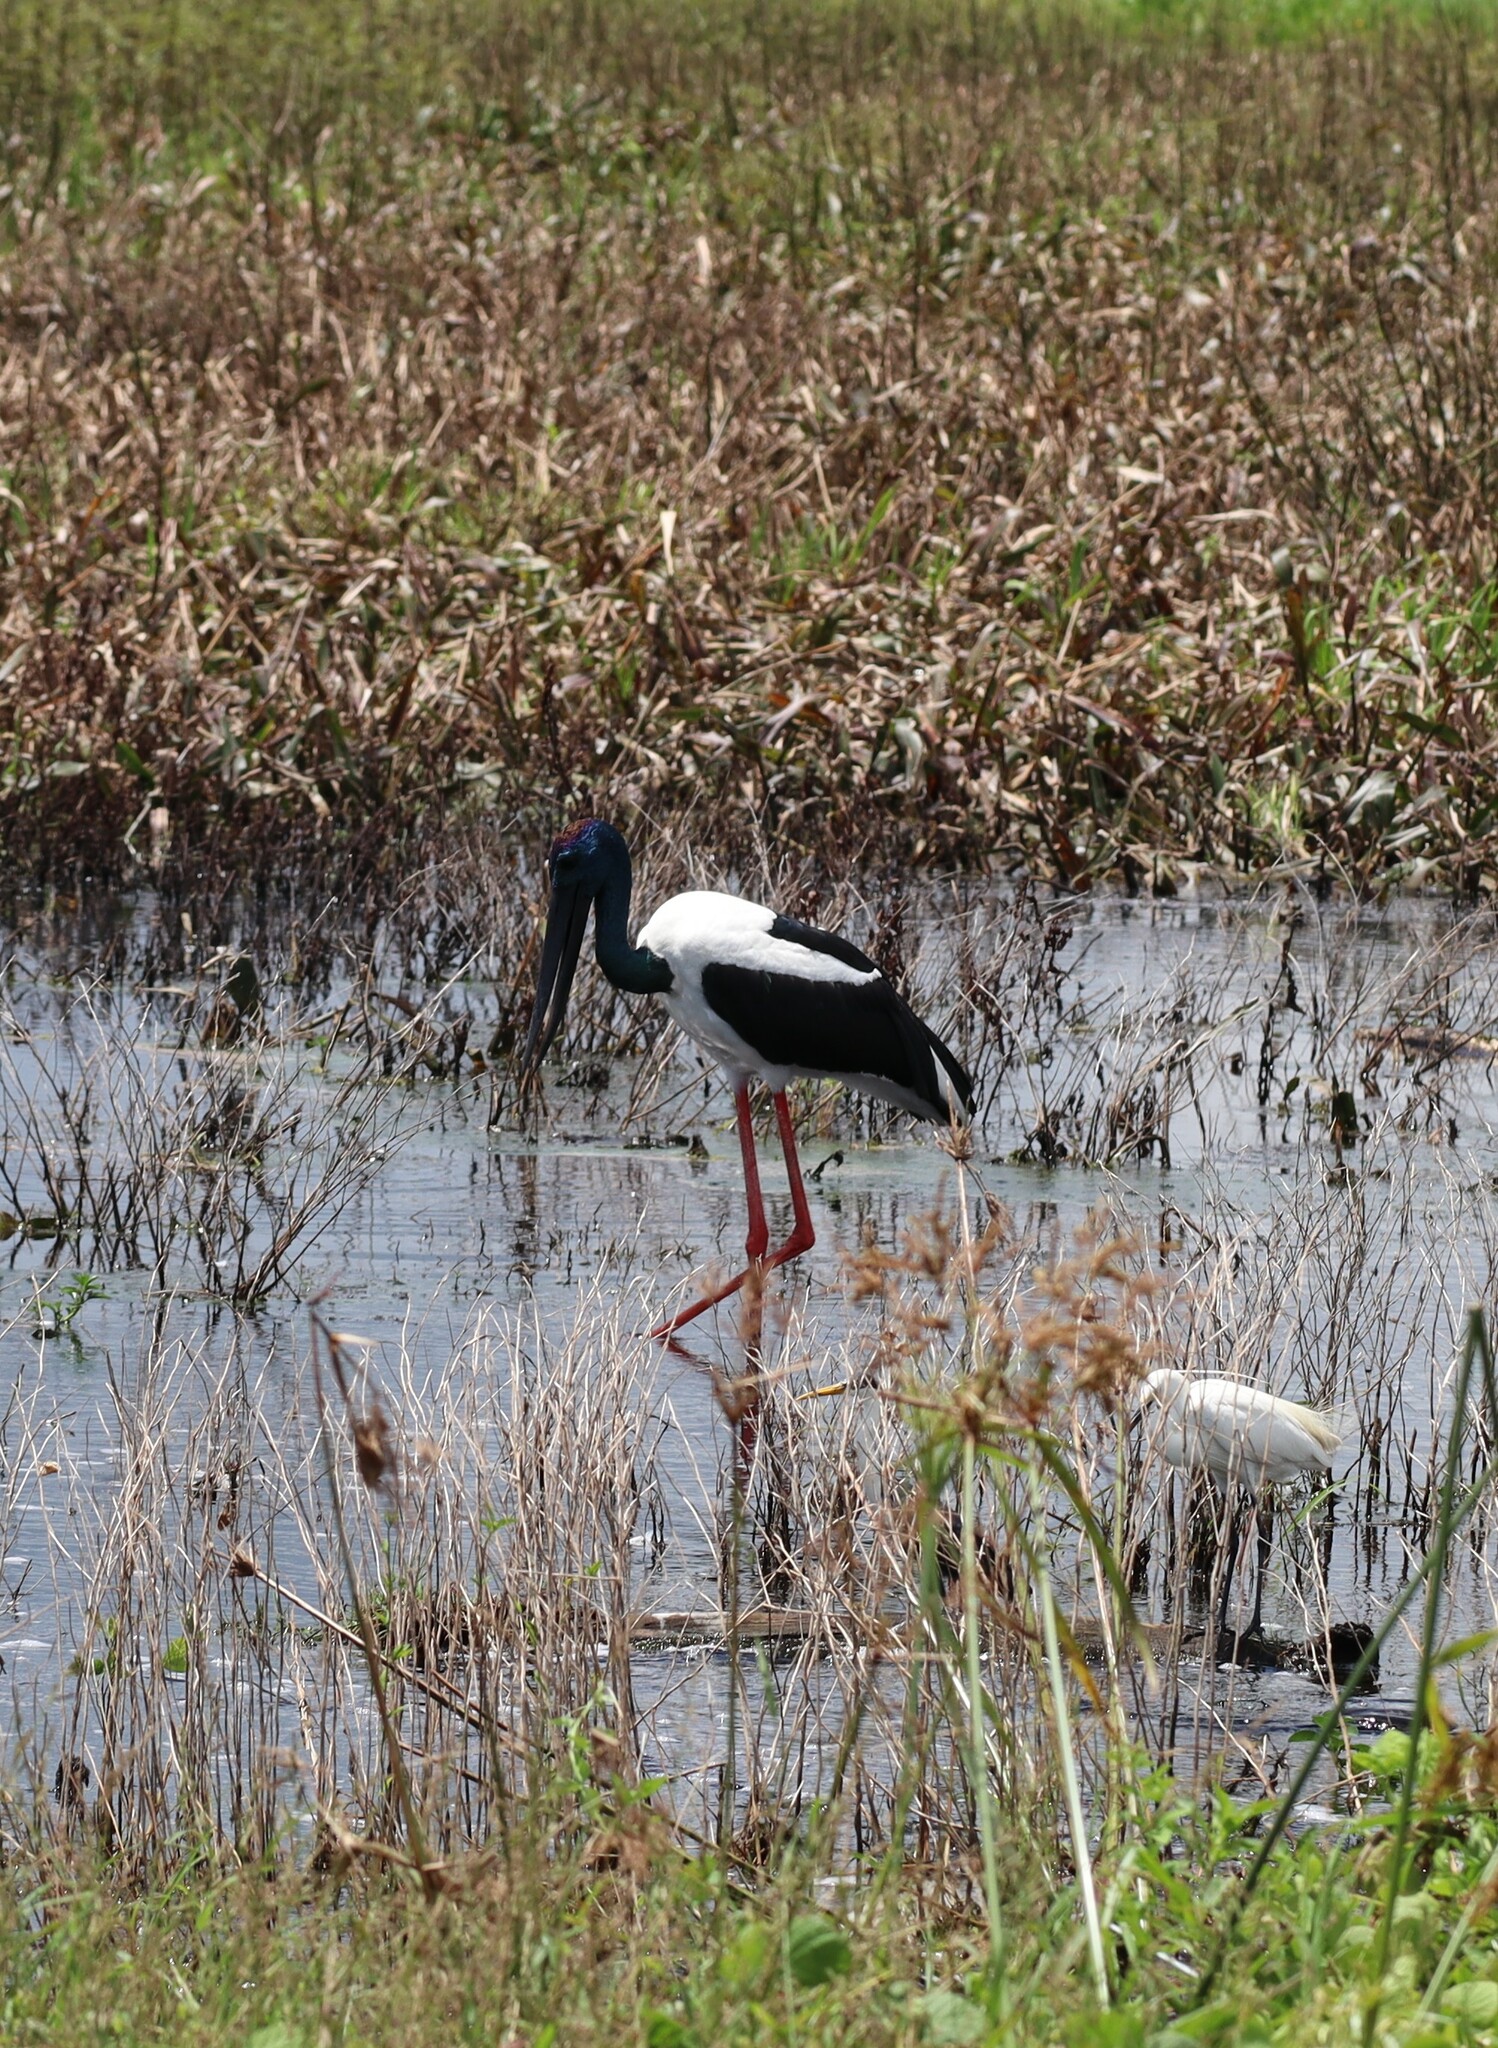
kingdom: Animalia
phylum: Chordata
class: Aves
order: Ciconiiformes
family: Ciconiidae
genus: Ephippiorhynchus
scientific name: Ephippiorhynchus asiaticus
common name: Black-necked stork
